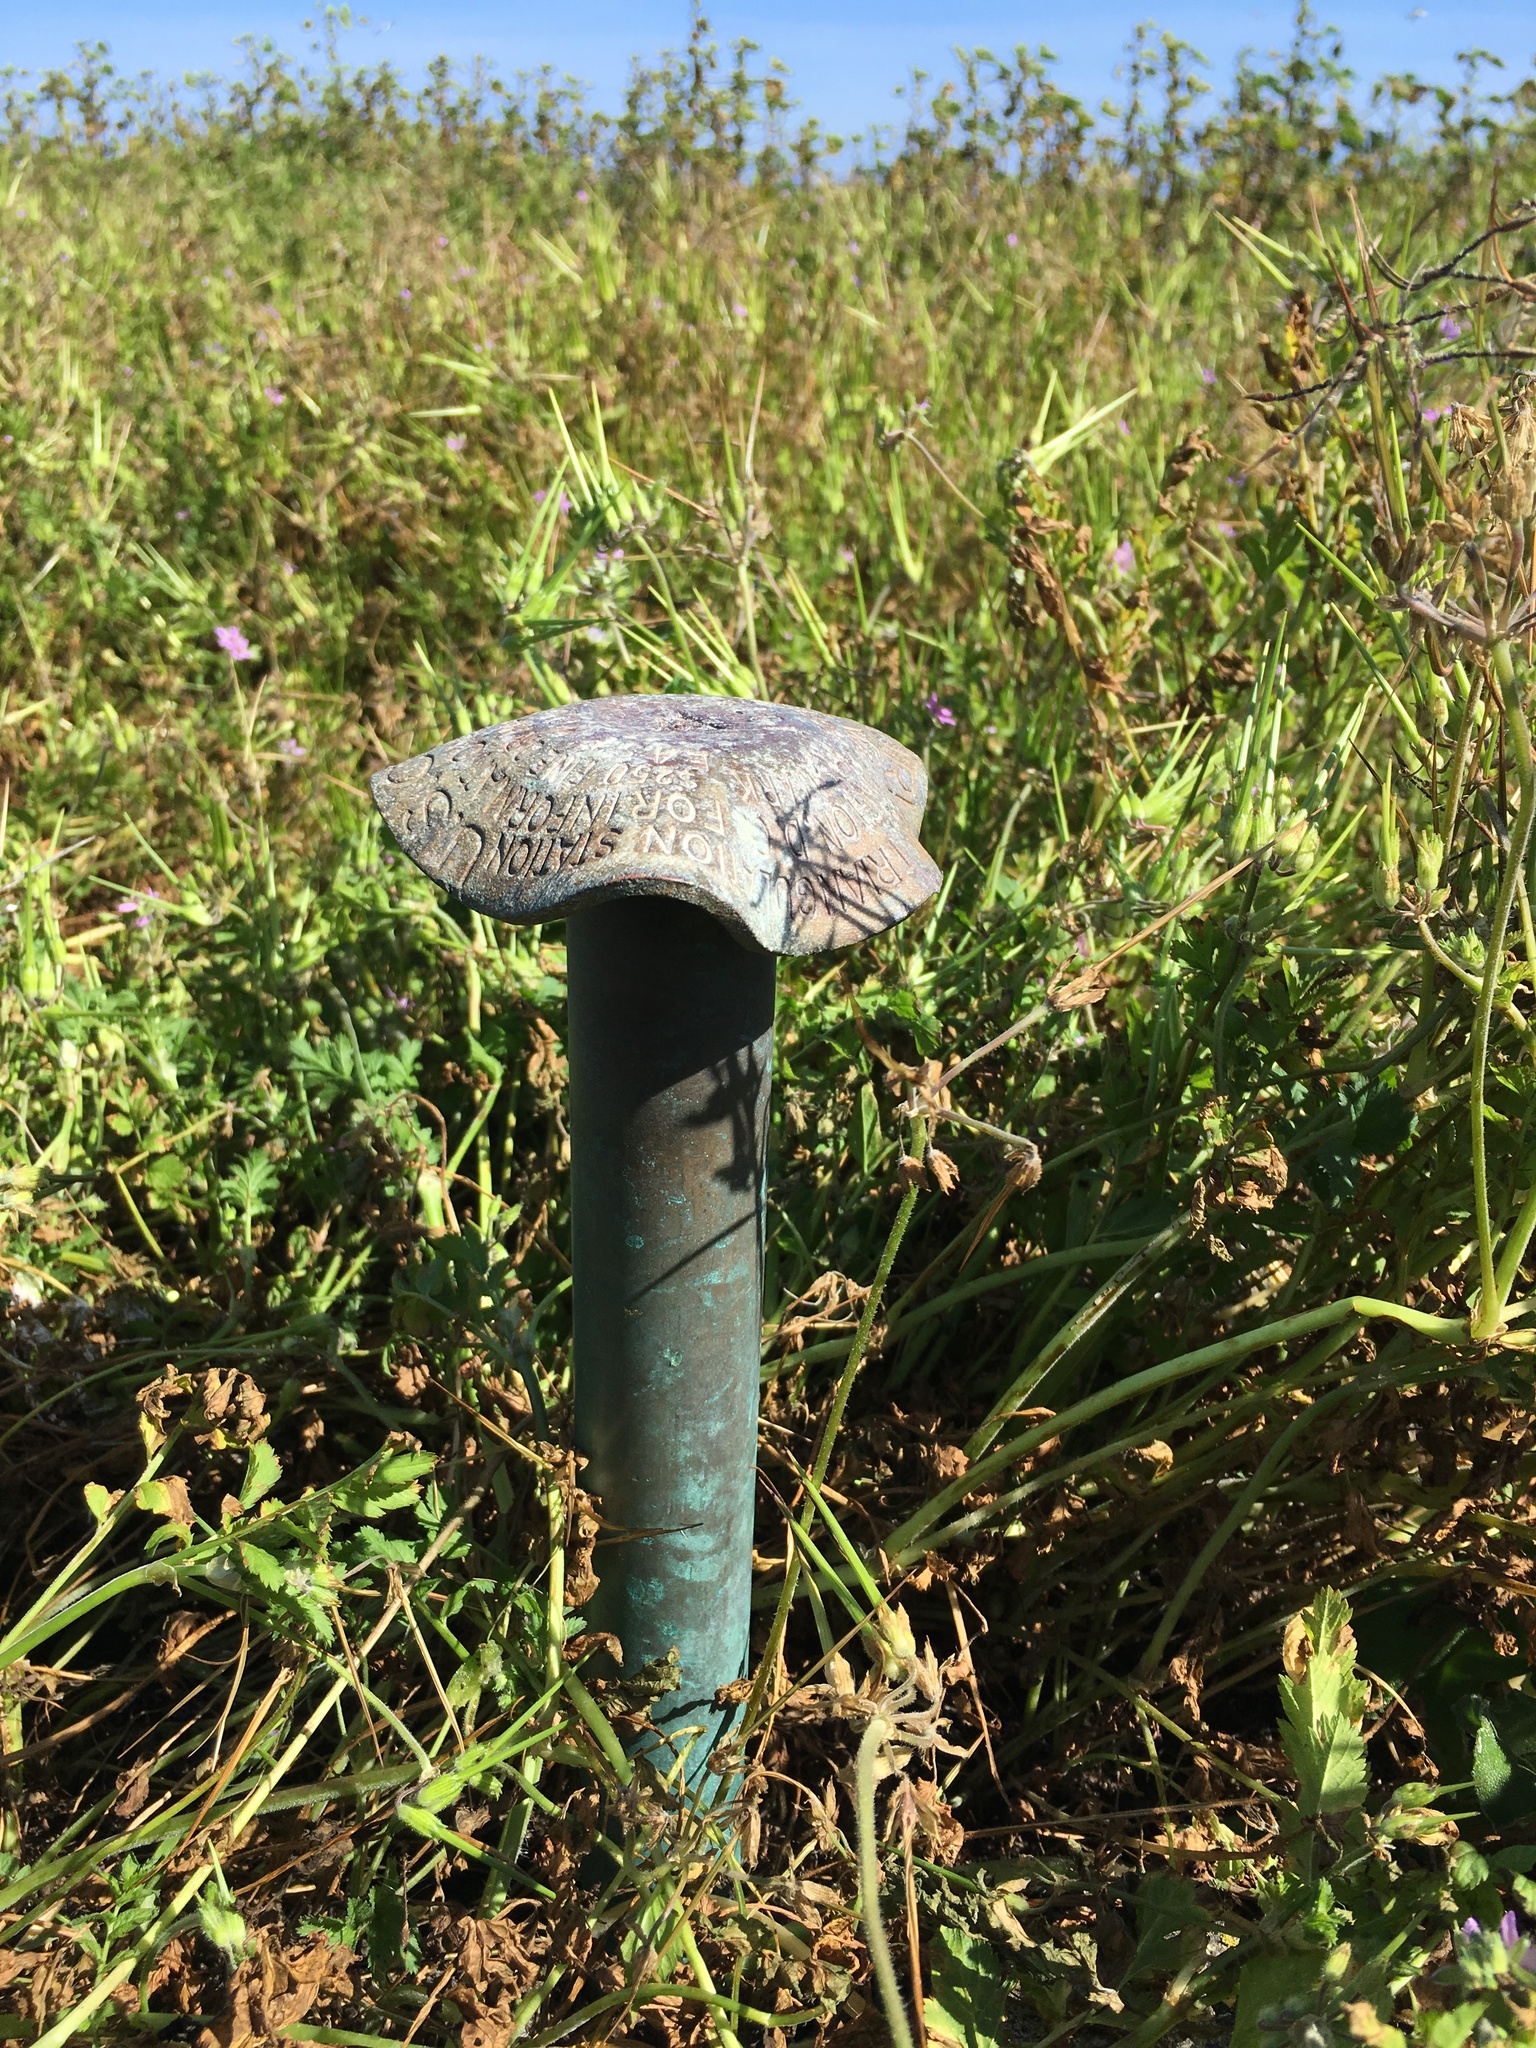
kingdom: Plantae
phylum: Tracheophyta
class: Magnoliopsida
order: Geraniales
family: Geraniaceae
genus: Erodium
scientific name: Erodium moschatum
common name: Musk stork's-bill
